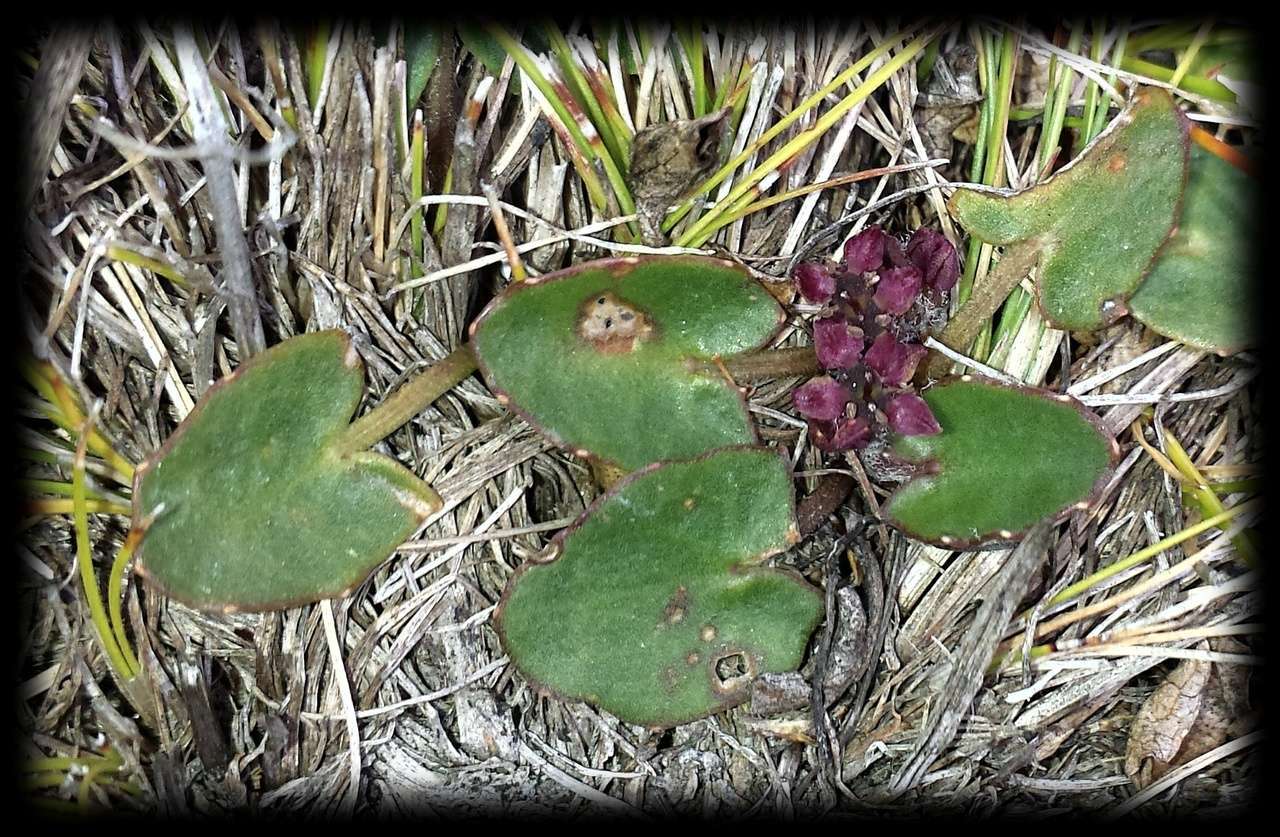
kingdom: Plantae
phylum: Tracheophyta
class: Magnoliopsida
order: Apiales
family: Apiaceae
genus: Centella
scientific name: Centella cordifolia
